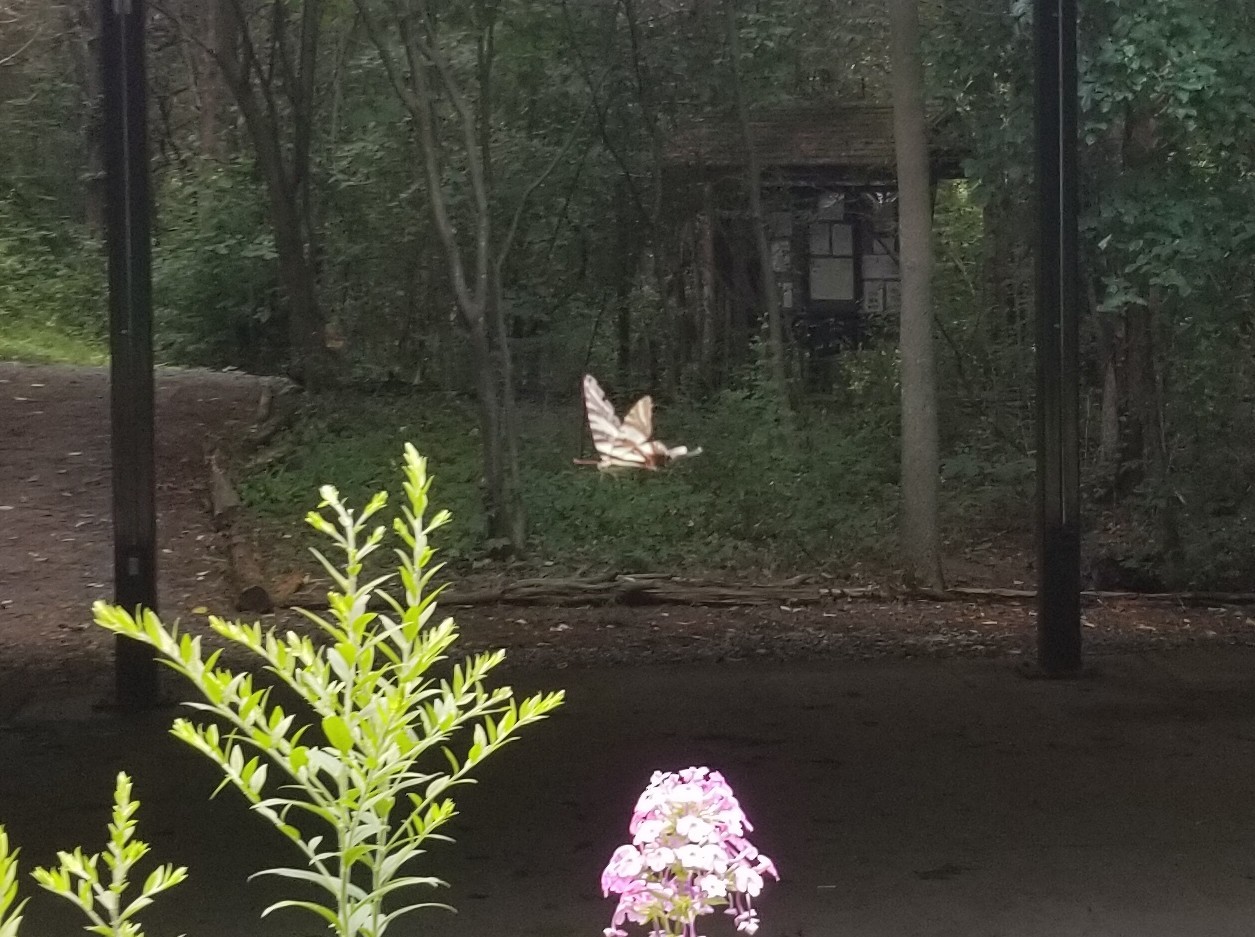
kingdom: Animalia
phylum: Arthropoda
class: Insecta
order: Lepidoptera
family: Papilionidae
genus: Protographium
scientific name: Protographium marcellus
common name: Zebra swallowtail
